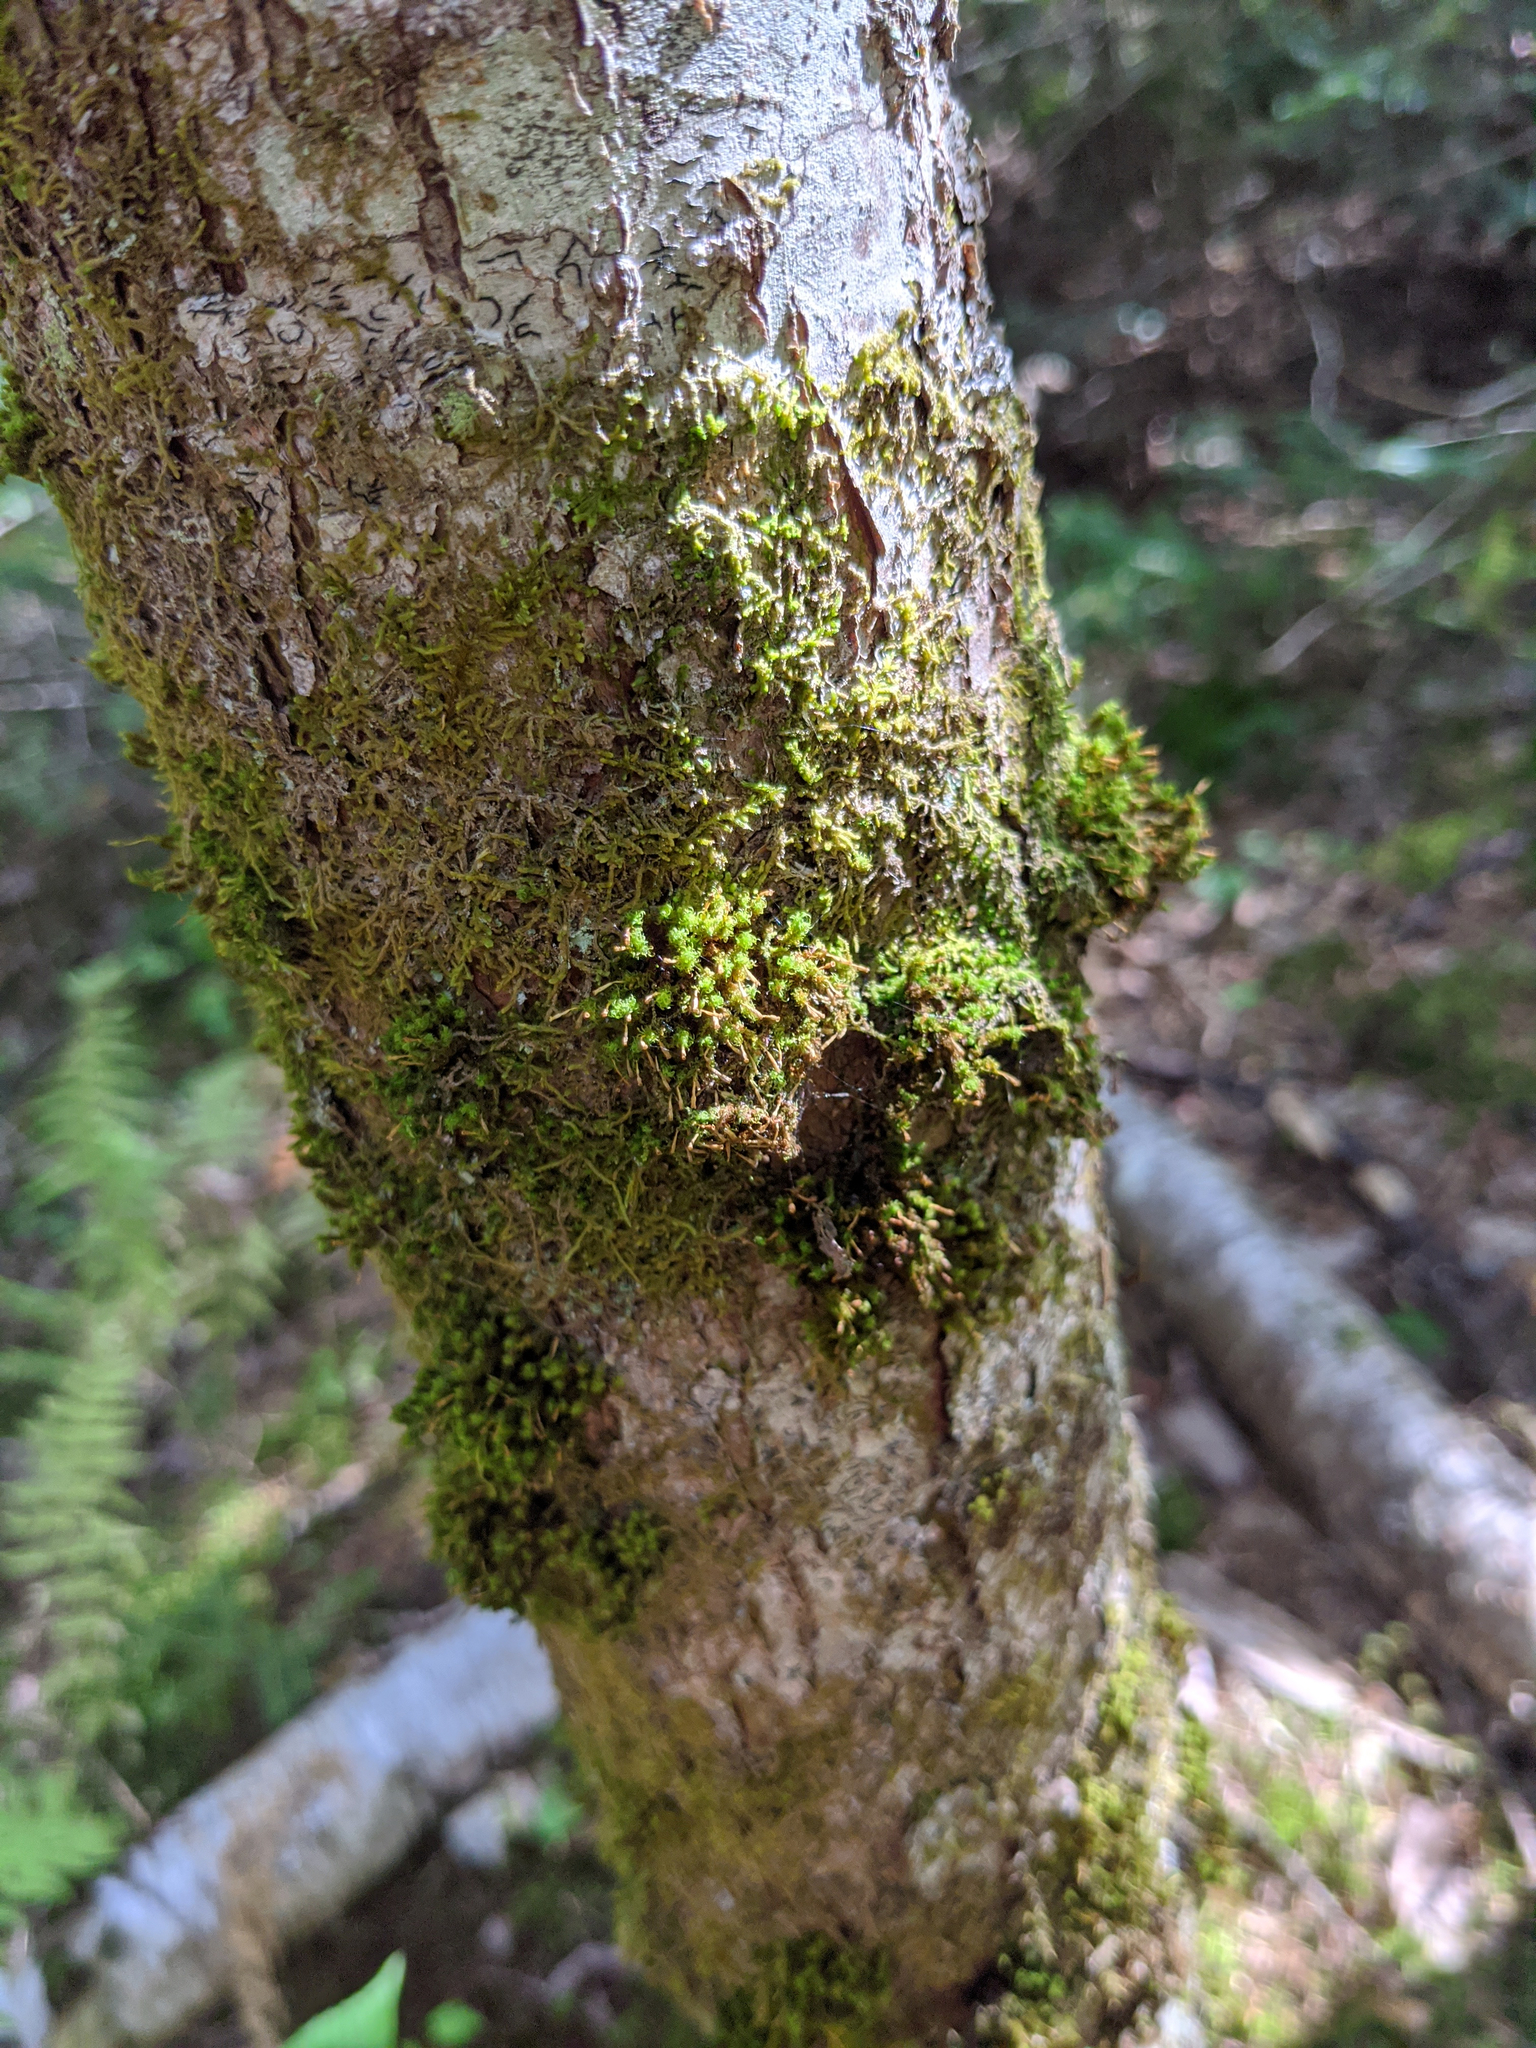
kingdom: Plantae
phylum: Bryophyta
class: Bryopsida
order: Orthotrichales
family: Orthotrichaceae
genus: Ulota
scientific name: Ulota crispa
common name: Crisped pincushion moss
